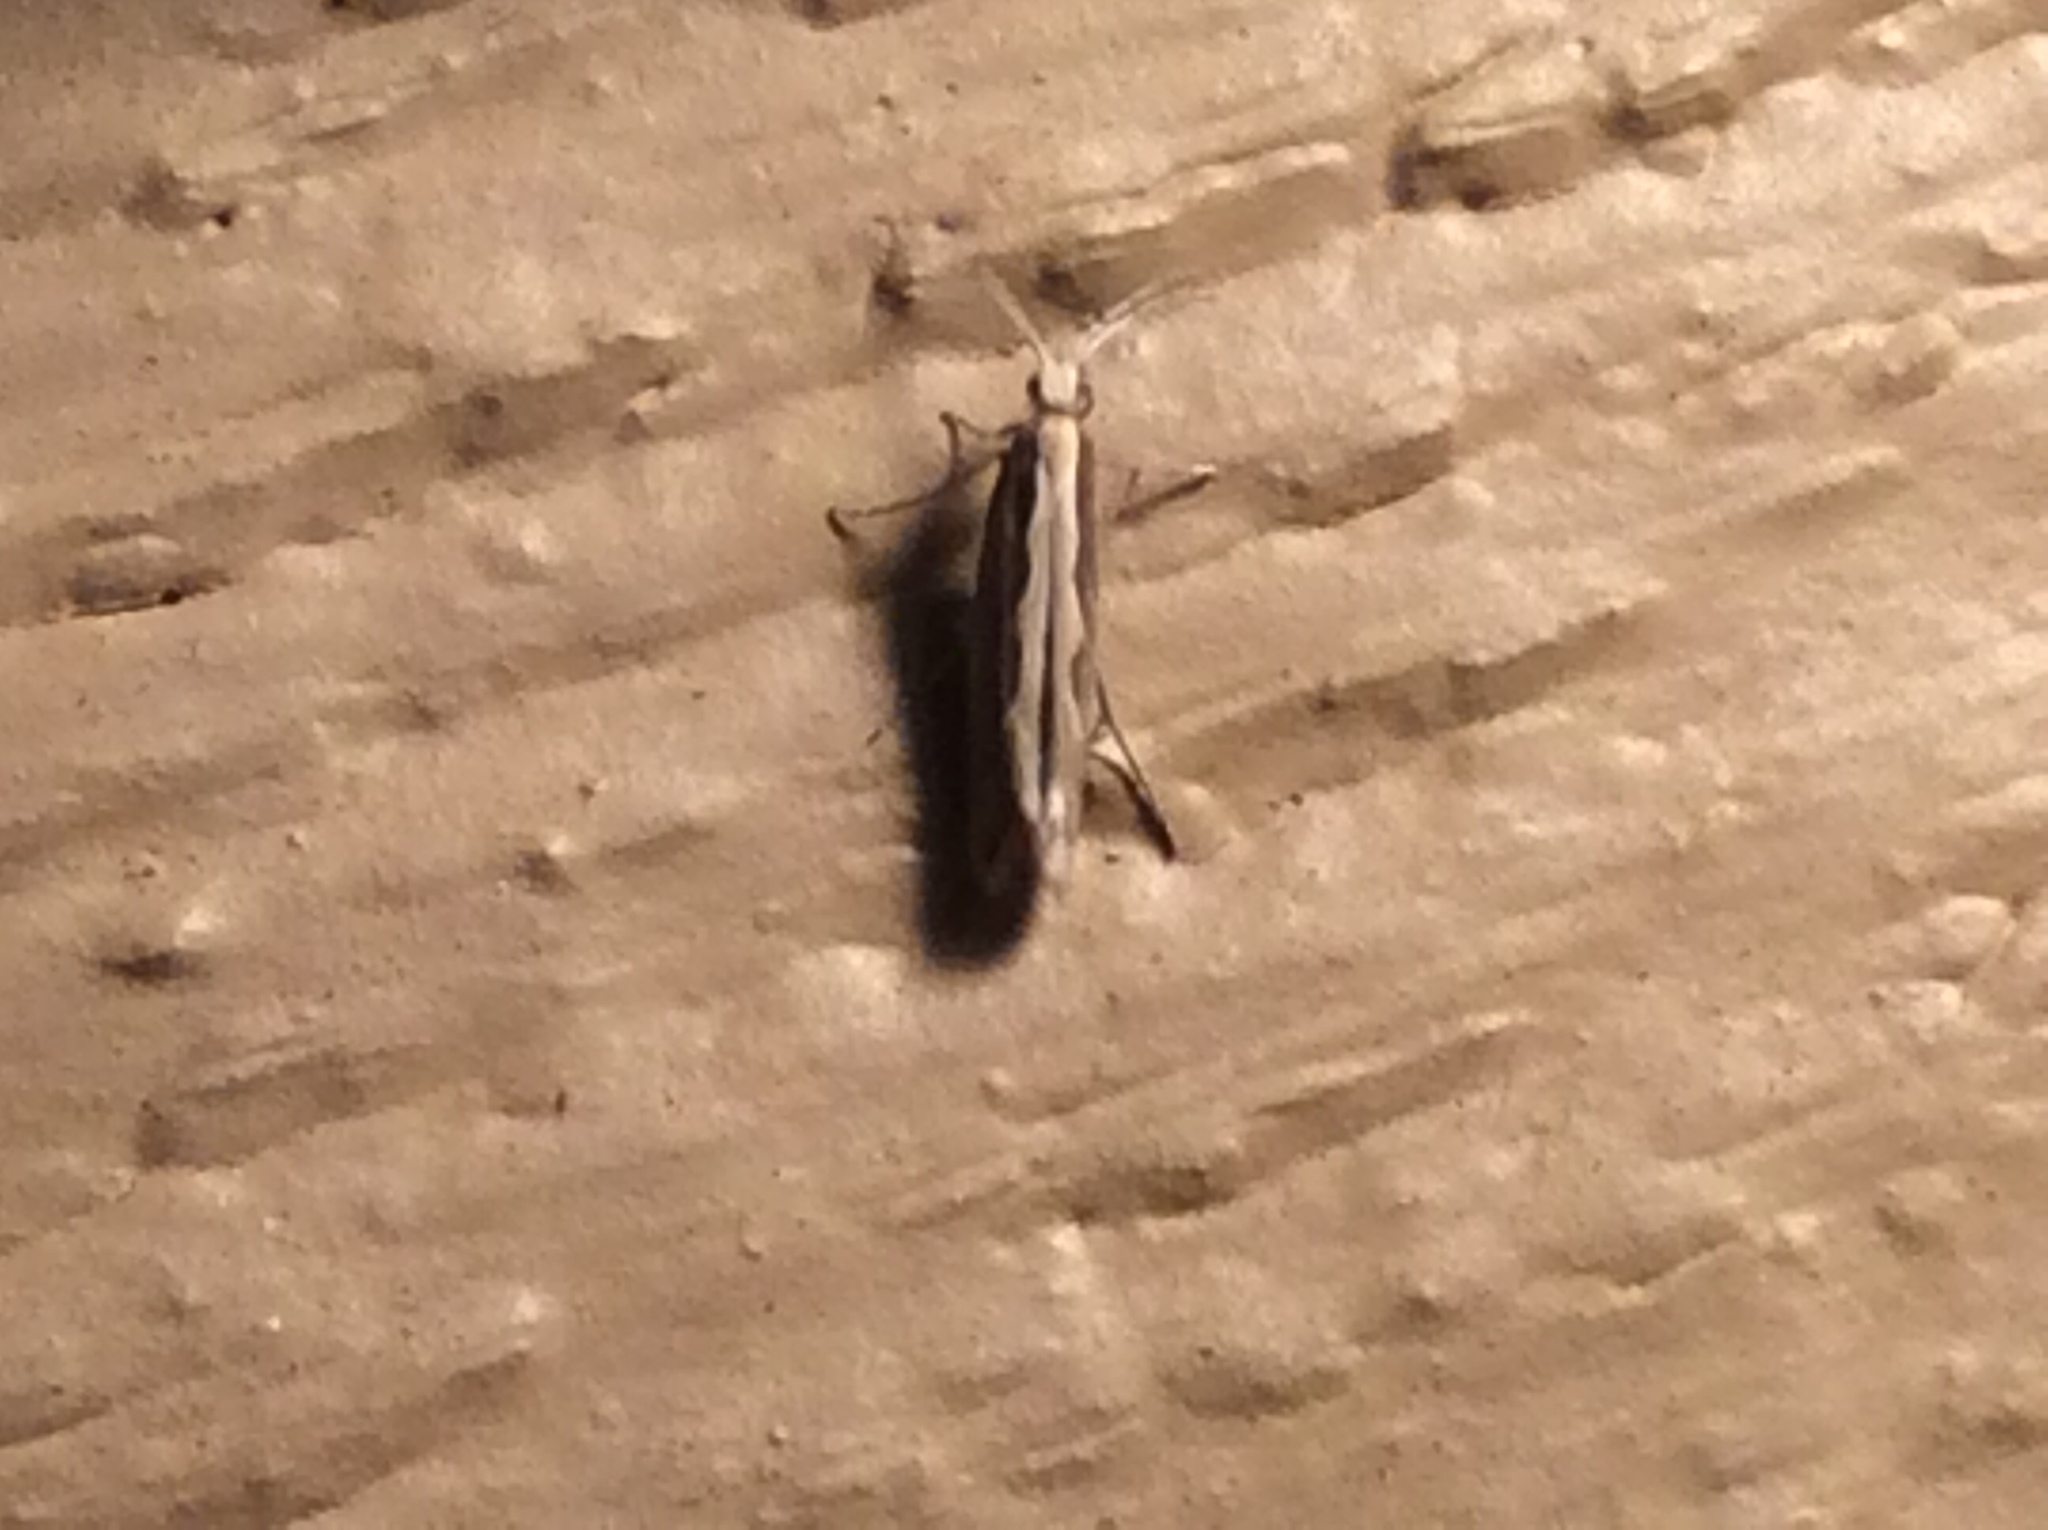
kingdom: Animalia
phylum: Arthropoda
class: Insecta
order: Lepidoptera
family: Plutellidae
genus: Plutella
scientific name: Plutella xylostella
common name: Diamond-back moth
